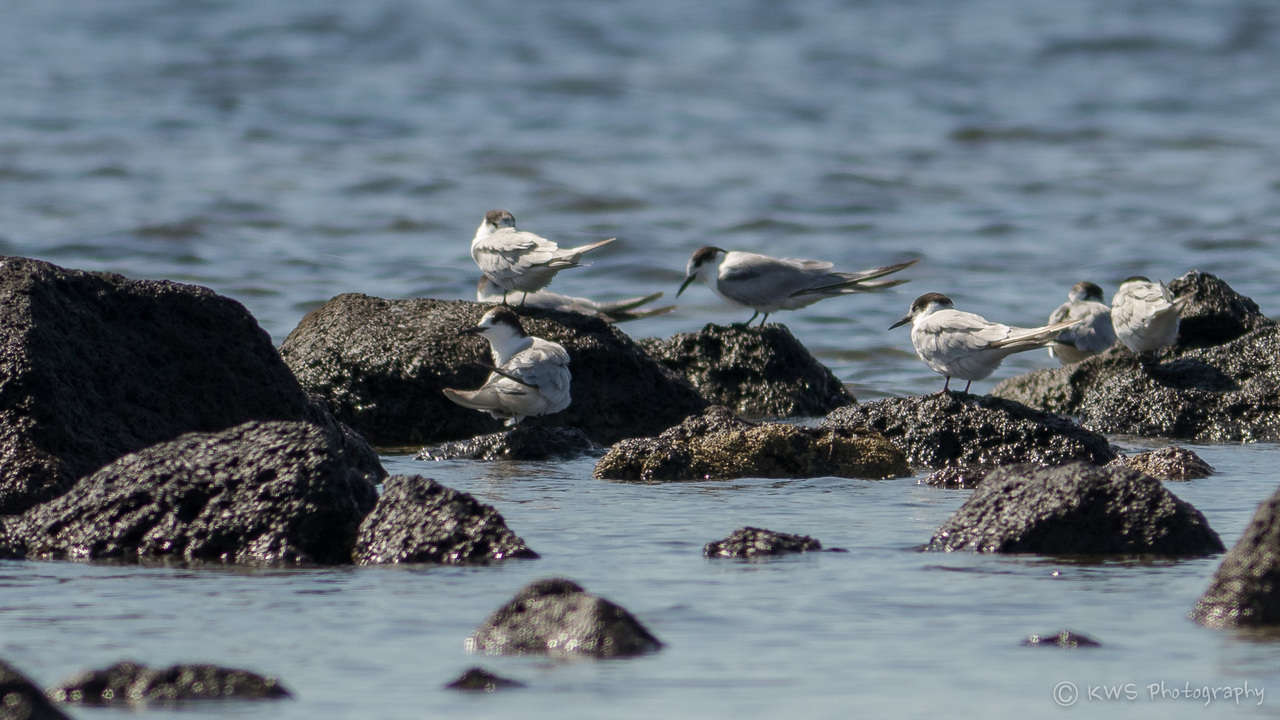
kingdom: Animalia
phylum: Chordata
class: Aves
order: Charadriiformes
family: Laridae
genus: Sterna
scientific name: Sterna hirundo
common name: Common tern
